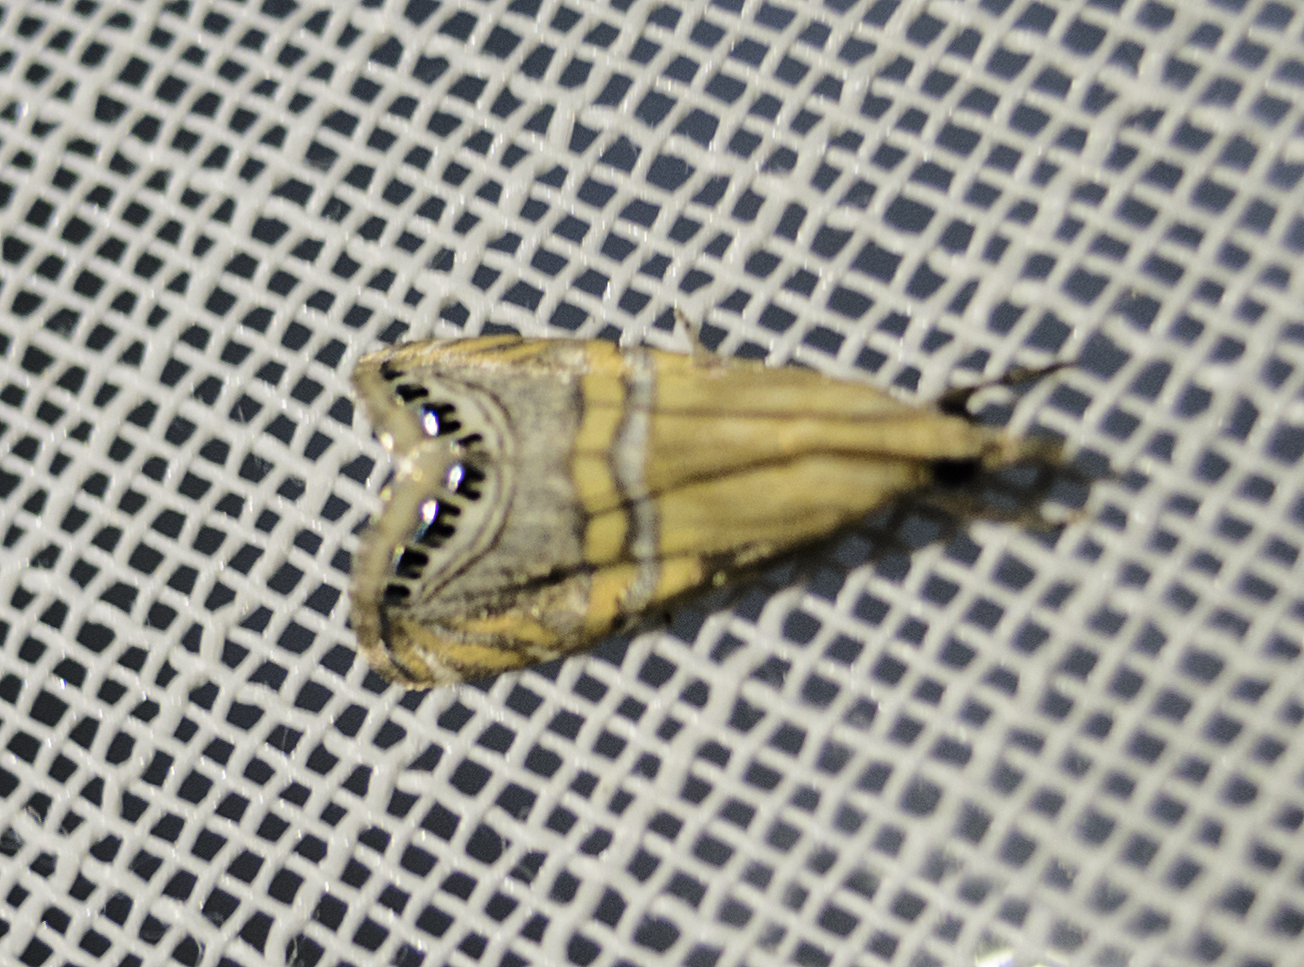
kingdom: Animalia
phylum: Arthropoda
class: Insecta
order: Lepidoptera
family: Crambidae
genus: Euchromius
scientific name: Euchromius bella
